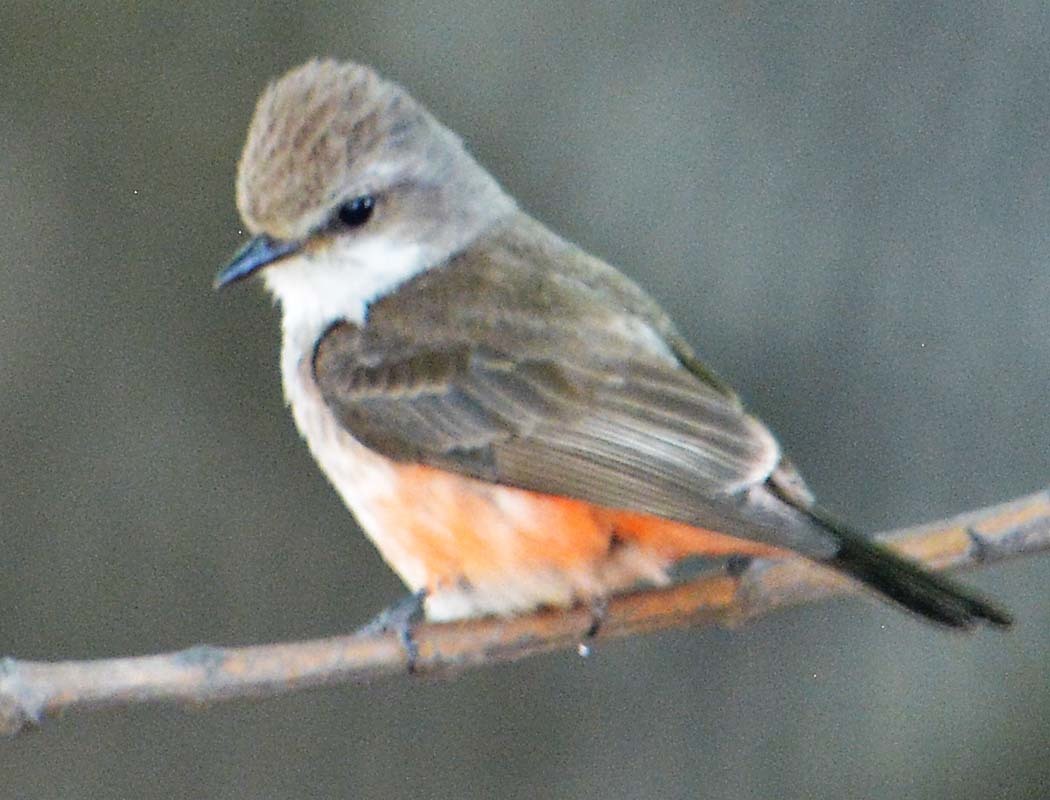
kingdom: Animalia
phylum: Chordata
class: Aves
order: Passeriformes
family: Tyrannidae
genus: Pyrocephalus
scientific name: Pyrocephalus rubinus
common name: Vermilion flycatcher
